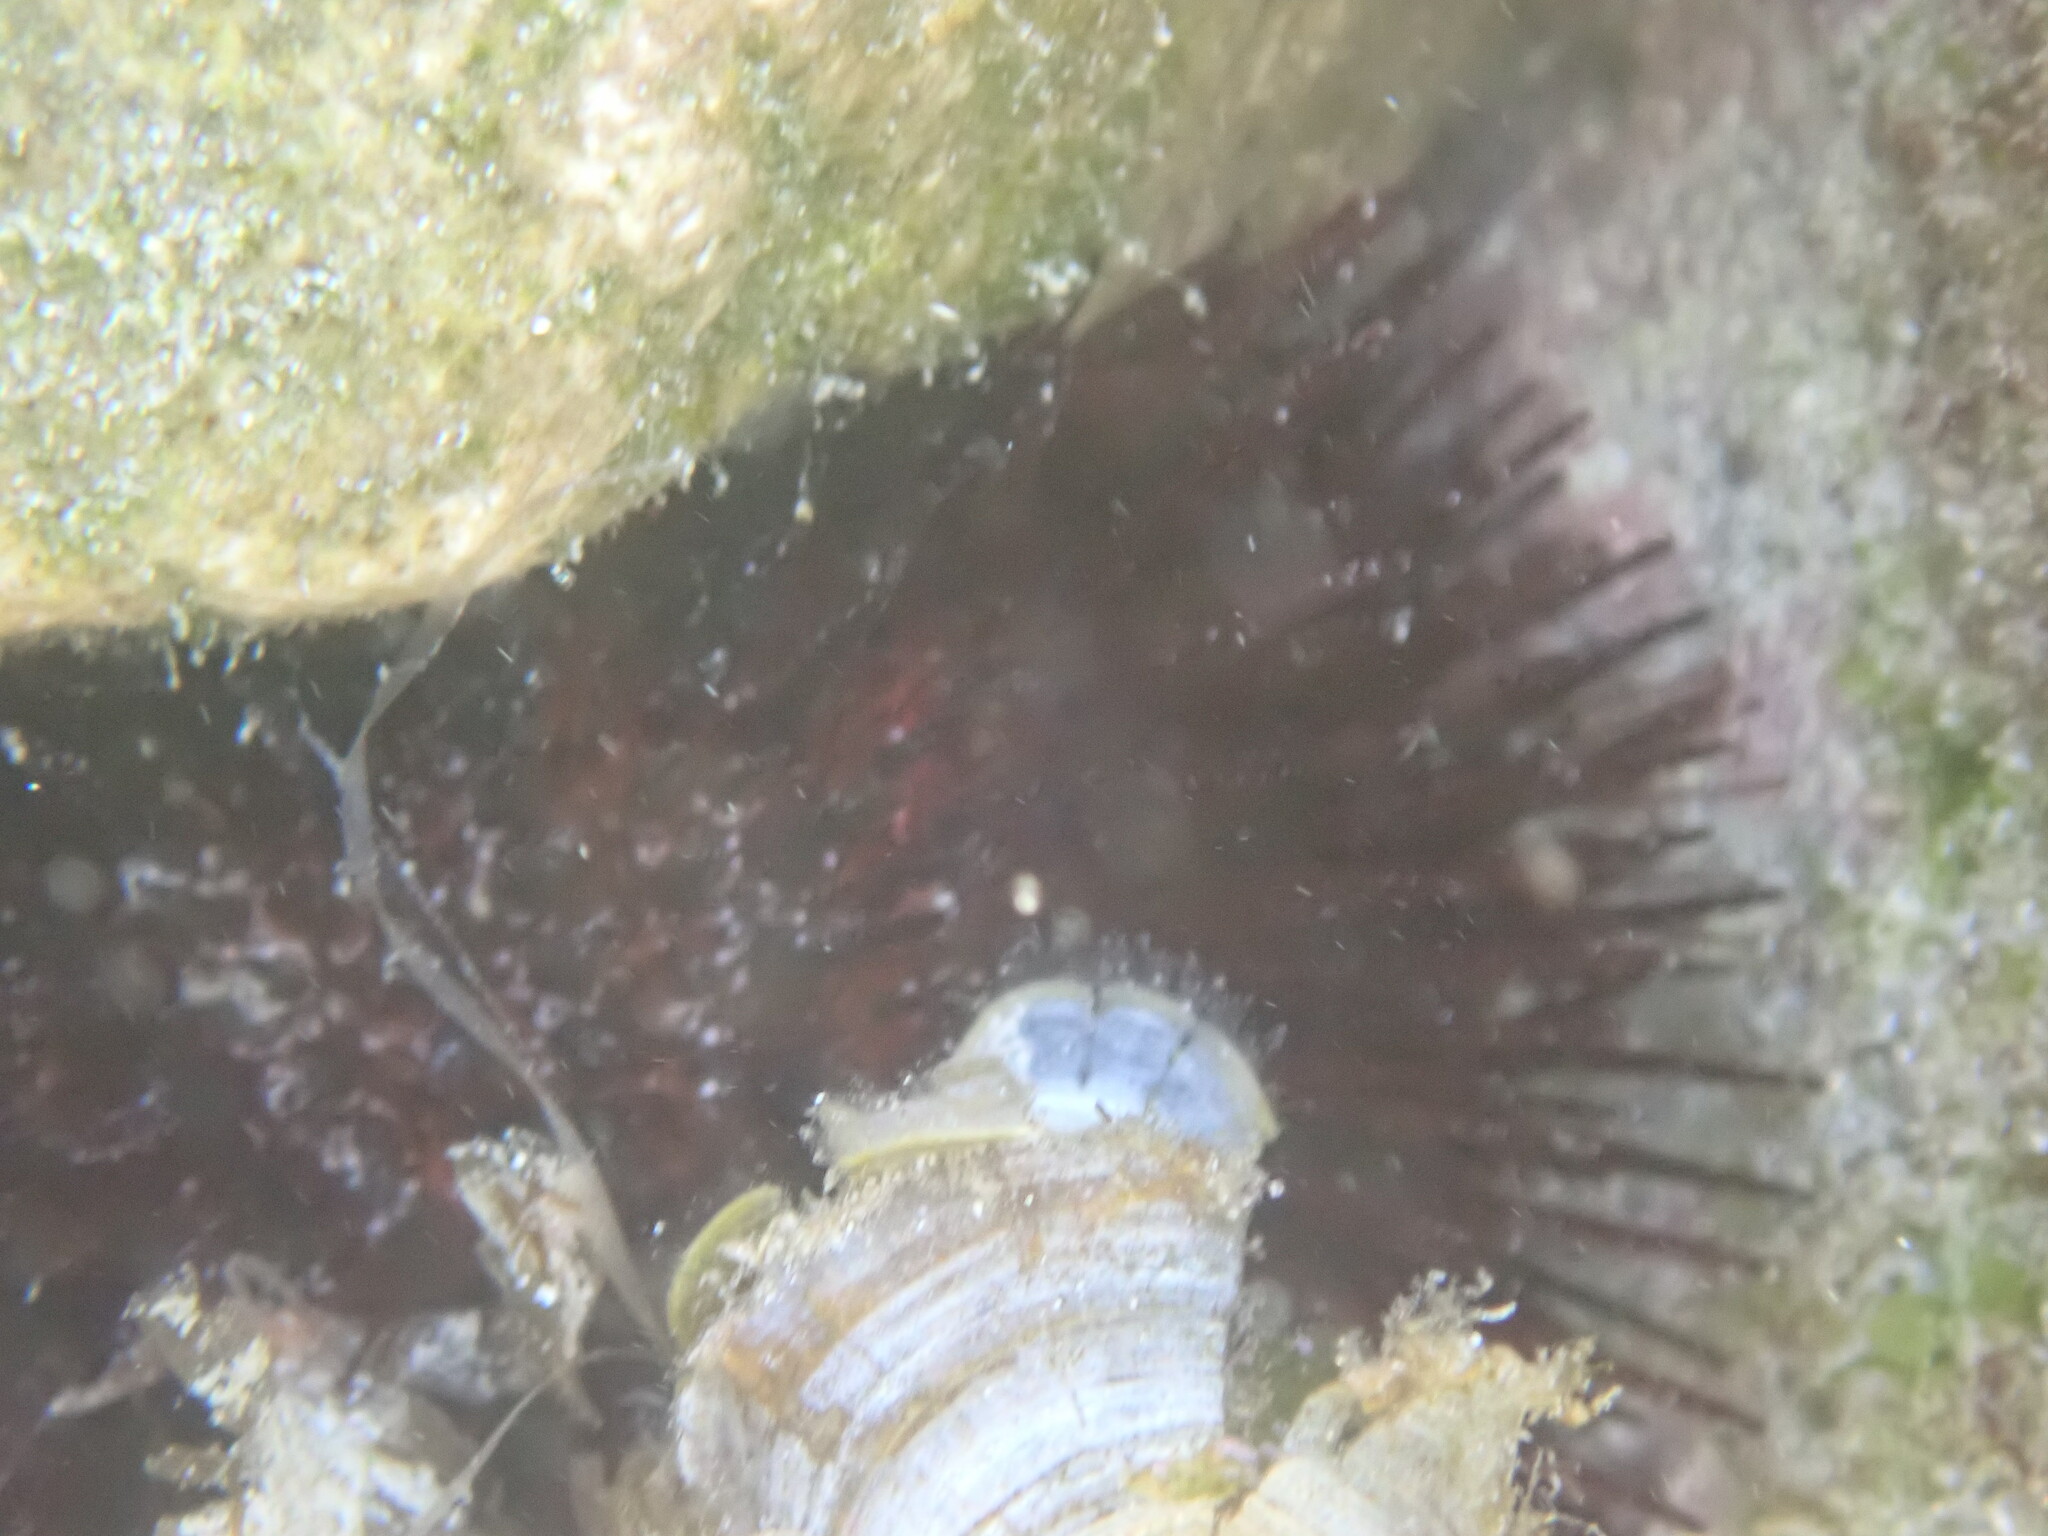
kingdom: Animalia
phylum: Echinodermata
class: Echinoidea
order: Camarodonta
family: Parechinidae
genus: Paracentrotus
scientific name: Paracentrotus lividus
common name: Purple sea urchin
